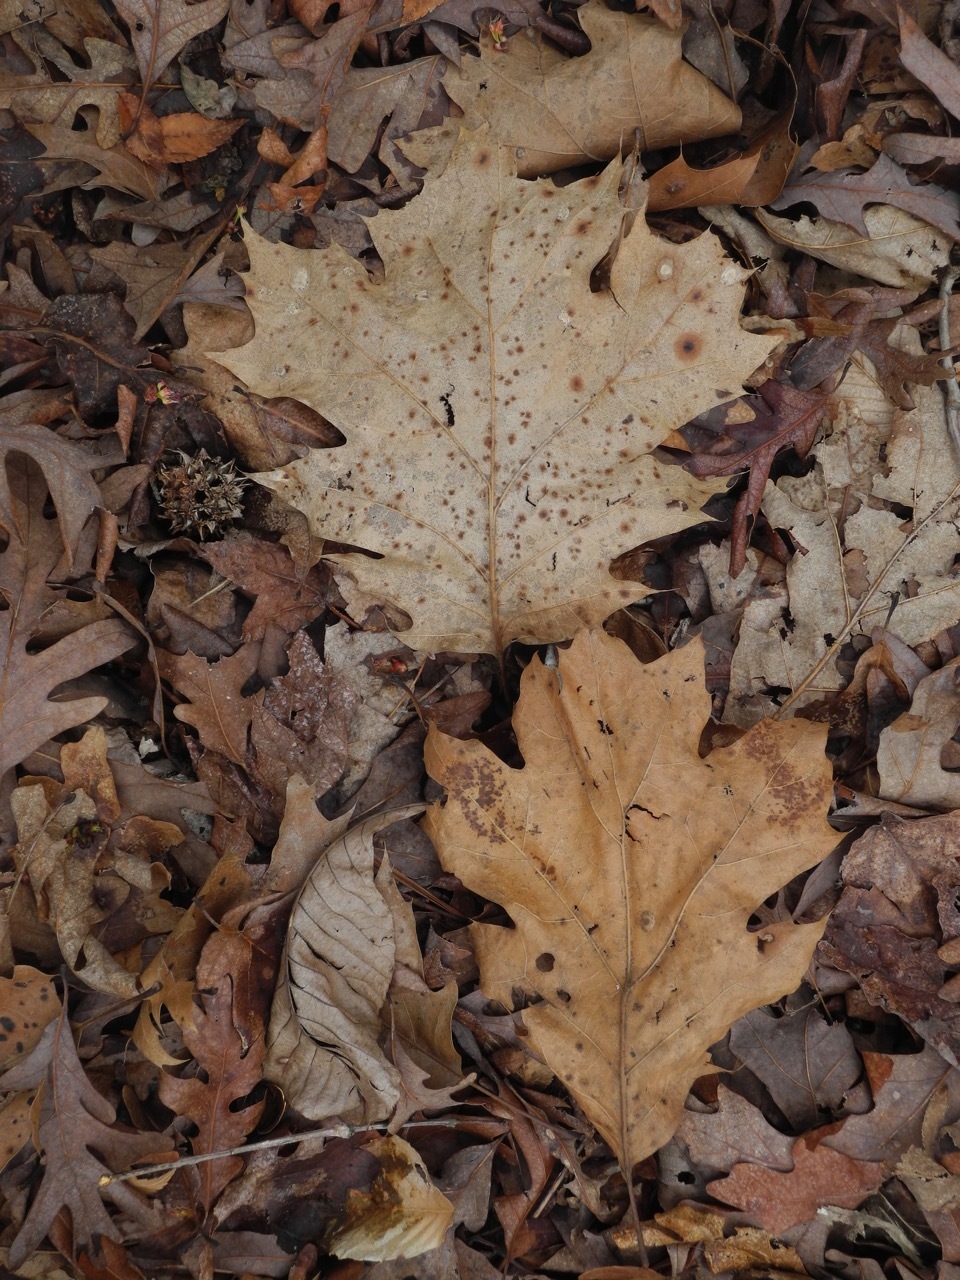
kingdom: Plantae
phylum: Tracheophyta
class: Magnoliopsida
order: Fagales
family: Fagaceae
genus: Quercus
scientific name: Quercus velutina
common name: Black oak
